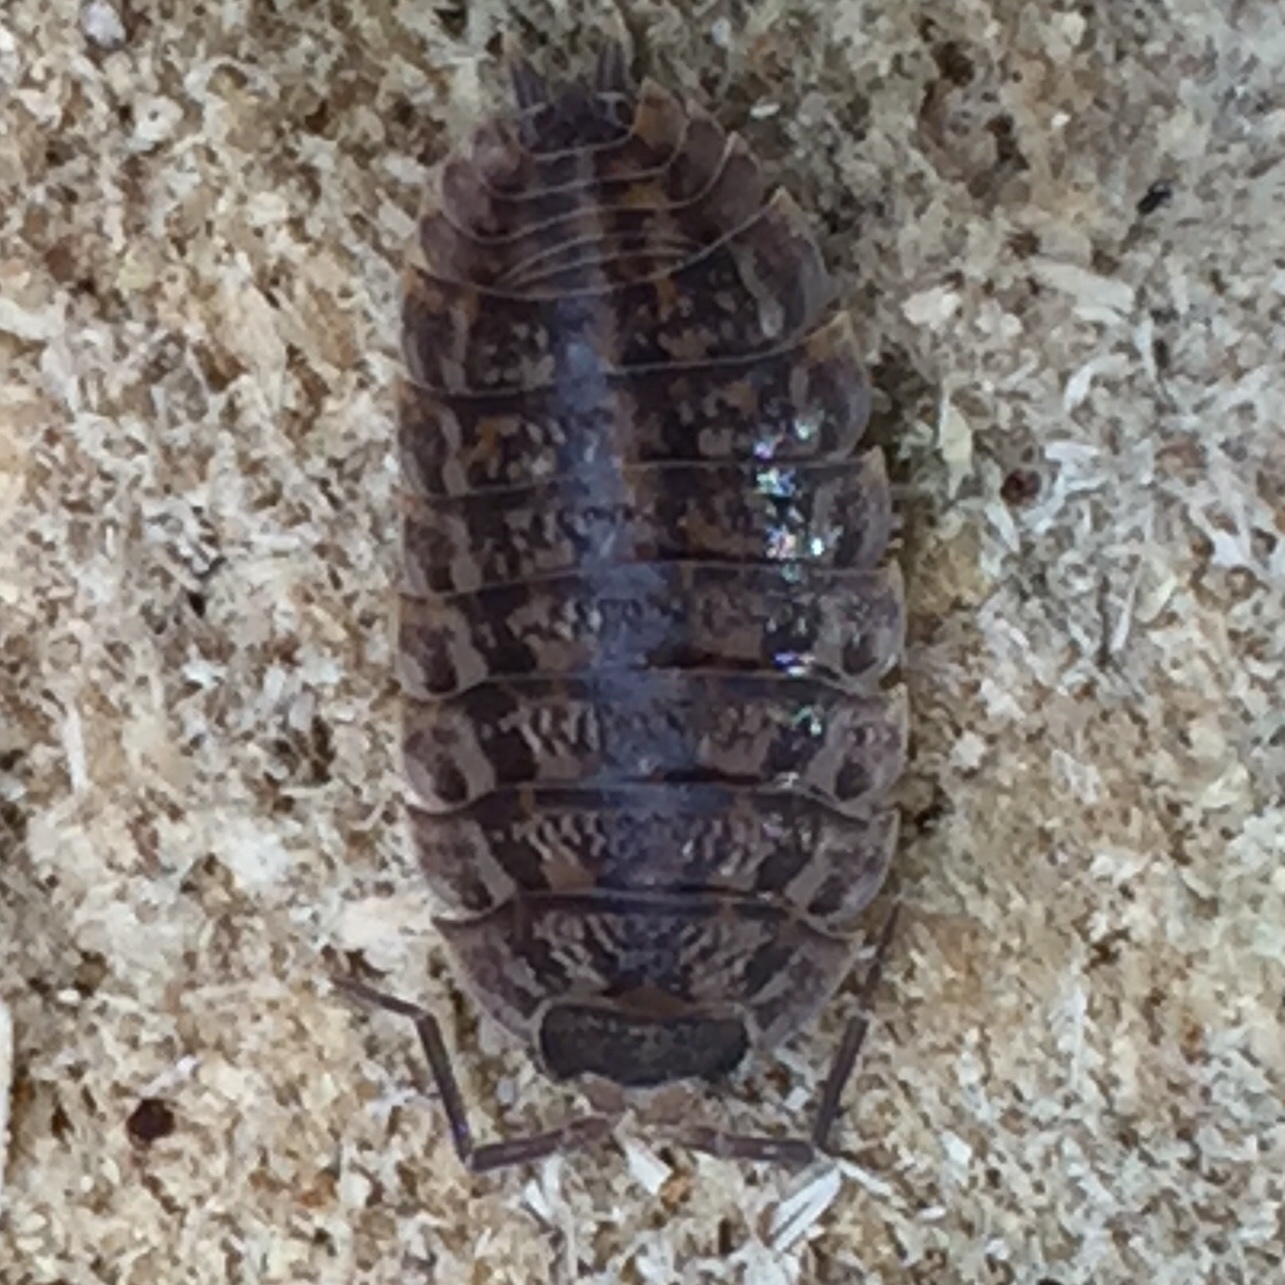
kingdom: Animalia
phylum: Arthropoda
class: Malacostraca
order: Isopoda
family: Trachelipodidae
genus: Trachelipus
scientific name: Trachelipus rathkii
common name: Isopod
